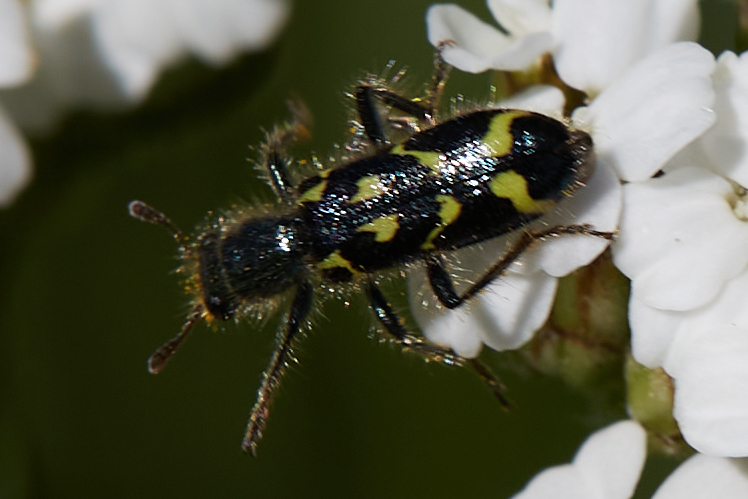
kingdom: Animalia
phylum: Arthropoda
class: Insecta
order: Coleoptera
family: Cleridae
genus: Trichodes
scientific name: Trichodes ornatus
